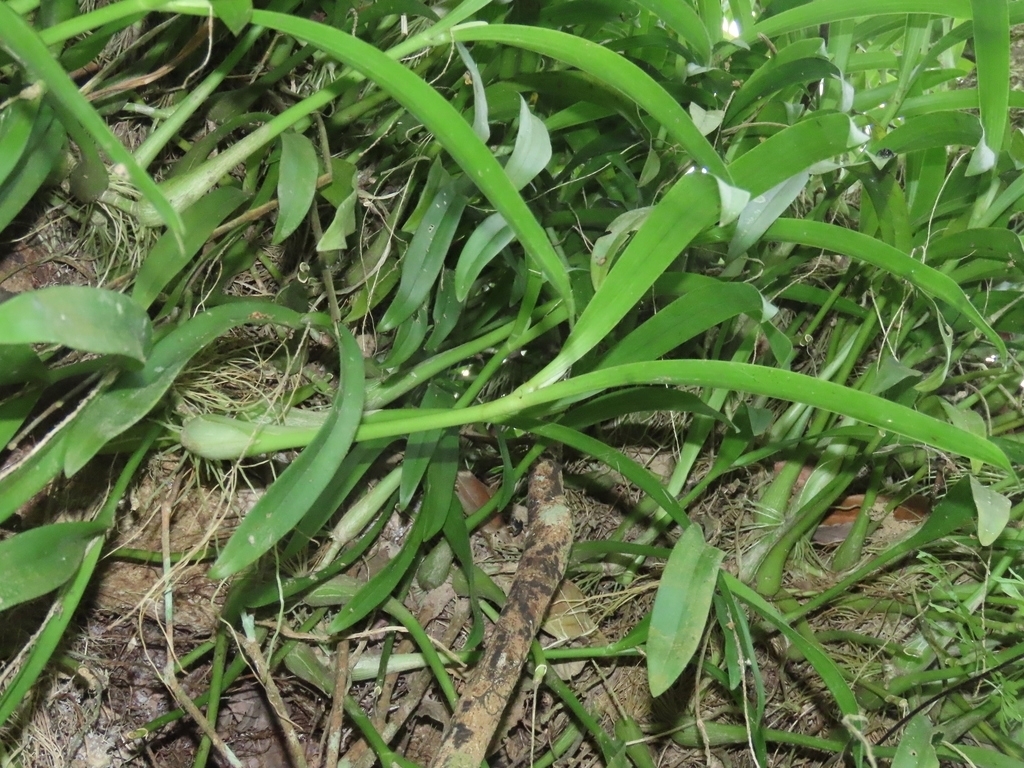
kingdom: Plantae
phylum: Tracheophyta
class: Liliopsida
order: Asparagales
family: Orchidaceae
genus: Liparis
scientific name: Liparis condylobulbon
